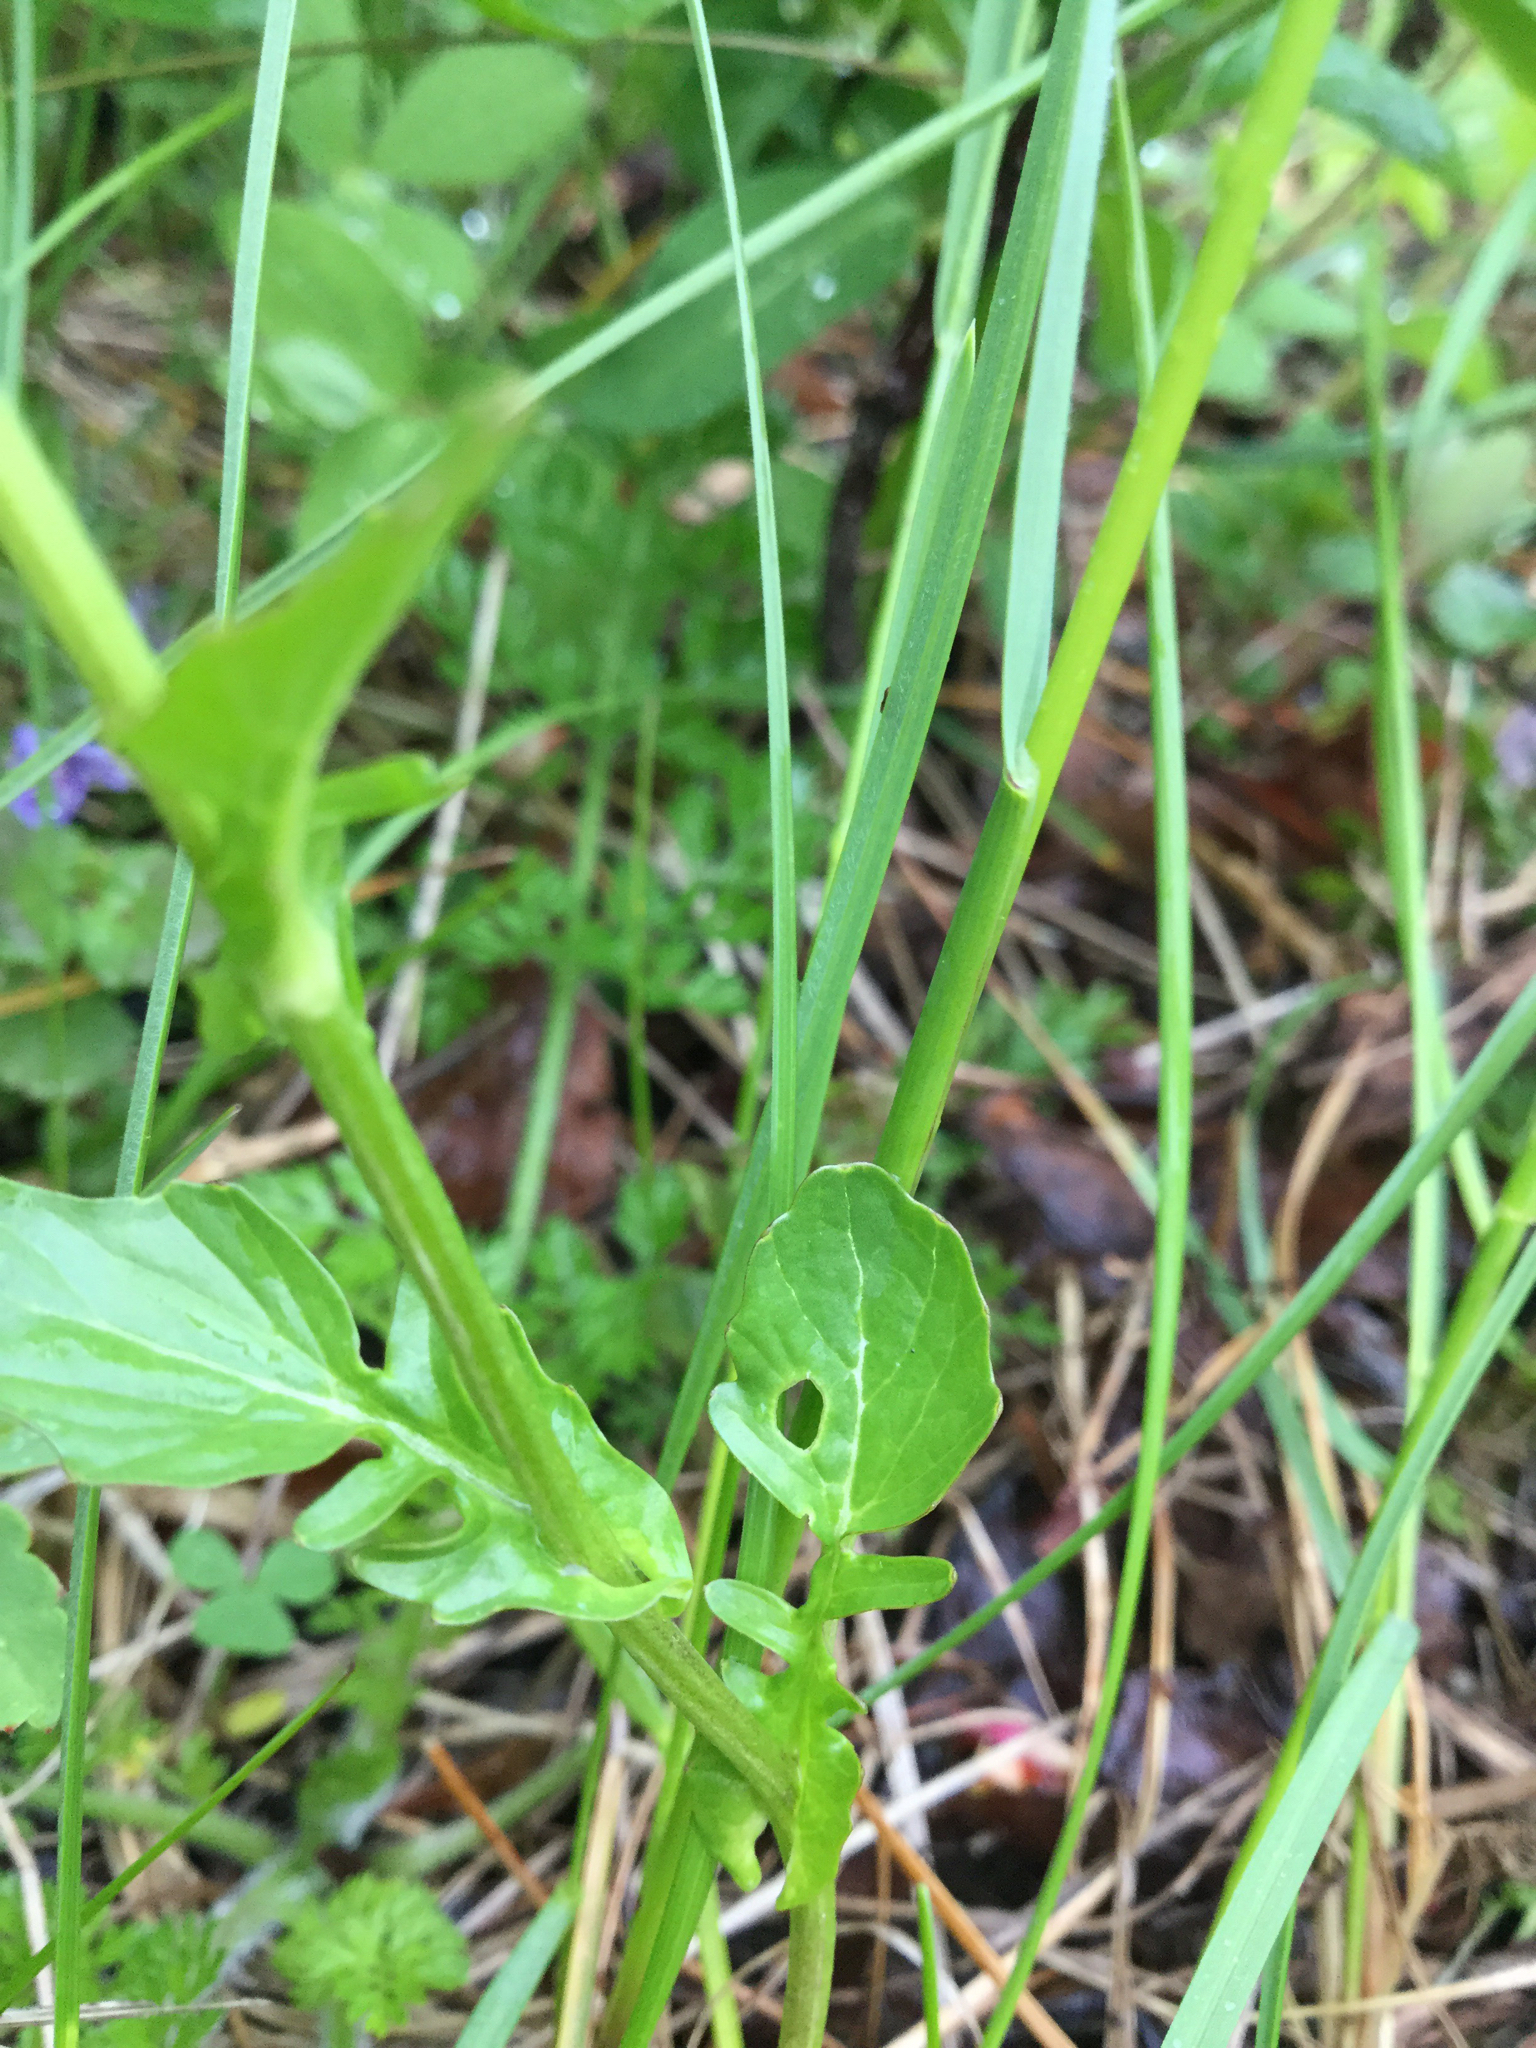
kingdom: Plantae
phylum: Tracheophyta
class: Magnoliopsida
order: Brassicales
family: Brassicaceae
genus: Barbarea
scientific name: Barbarea vulgaris
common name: Cressy-greens
